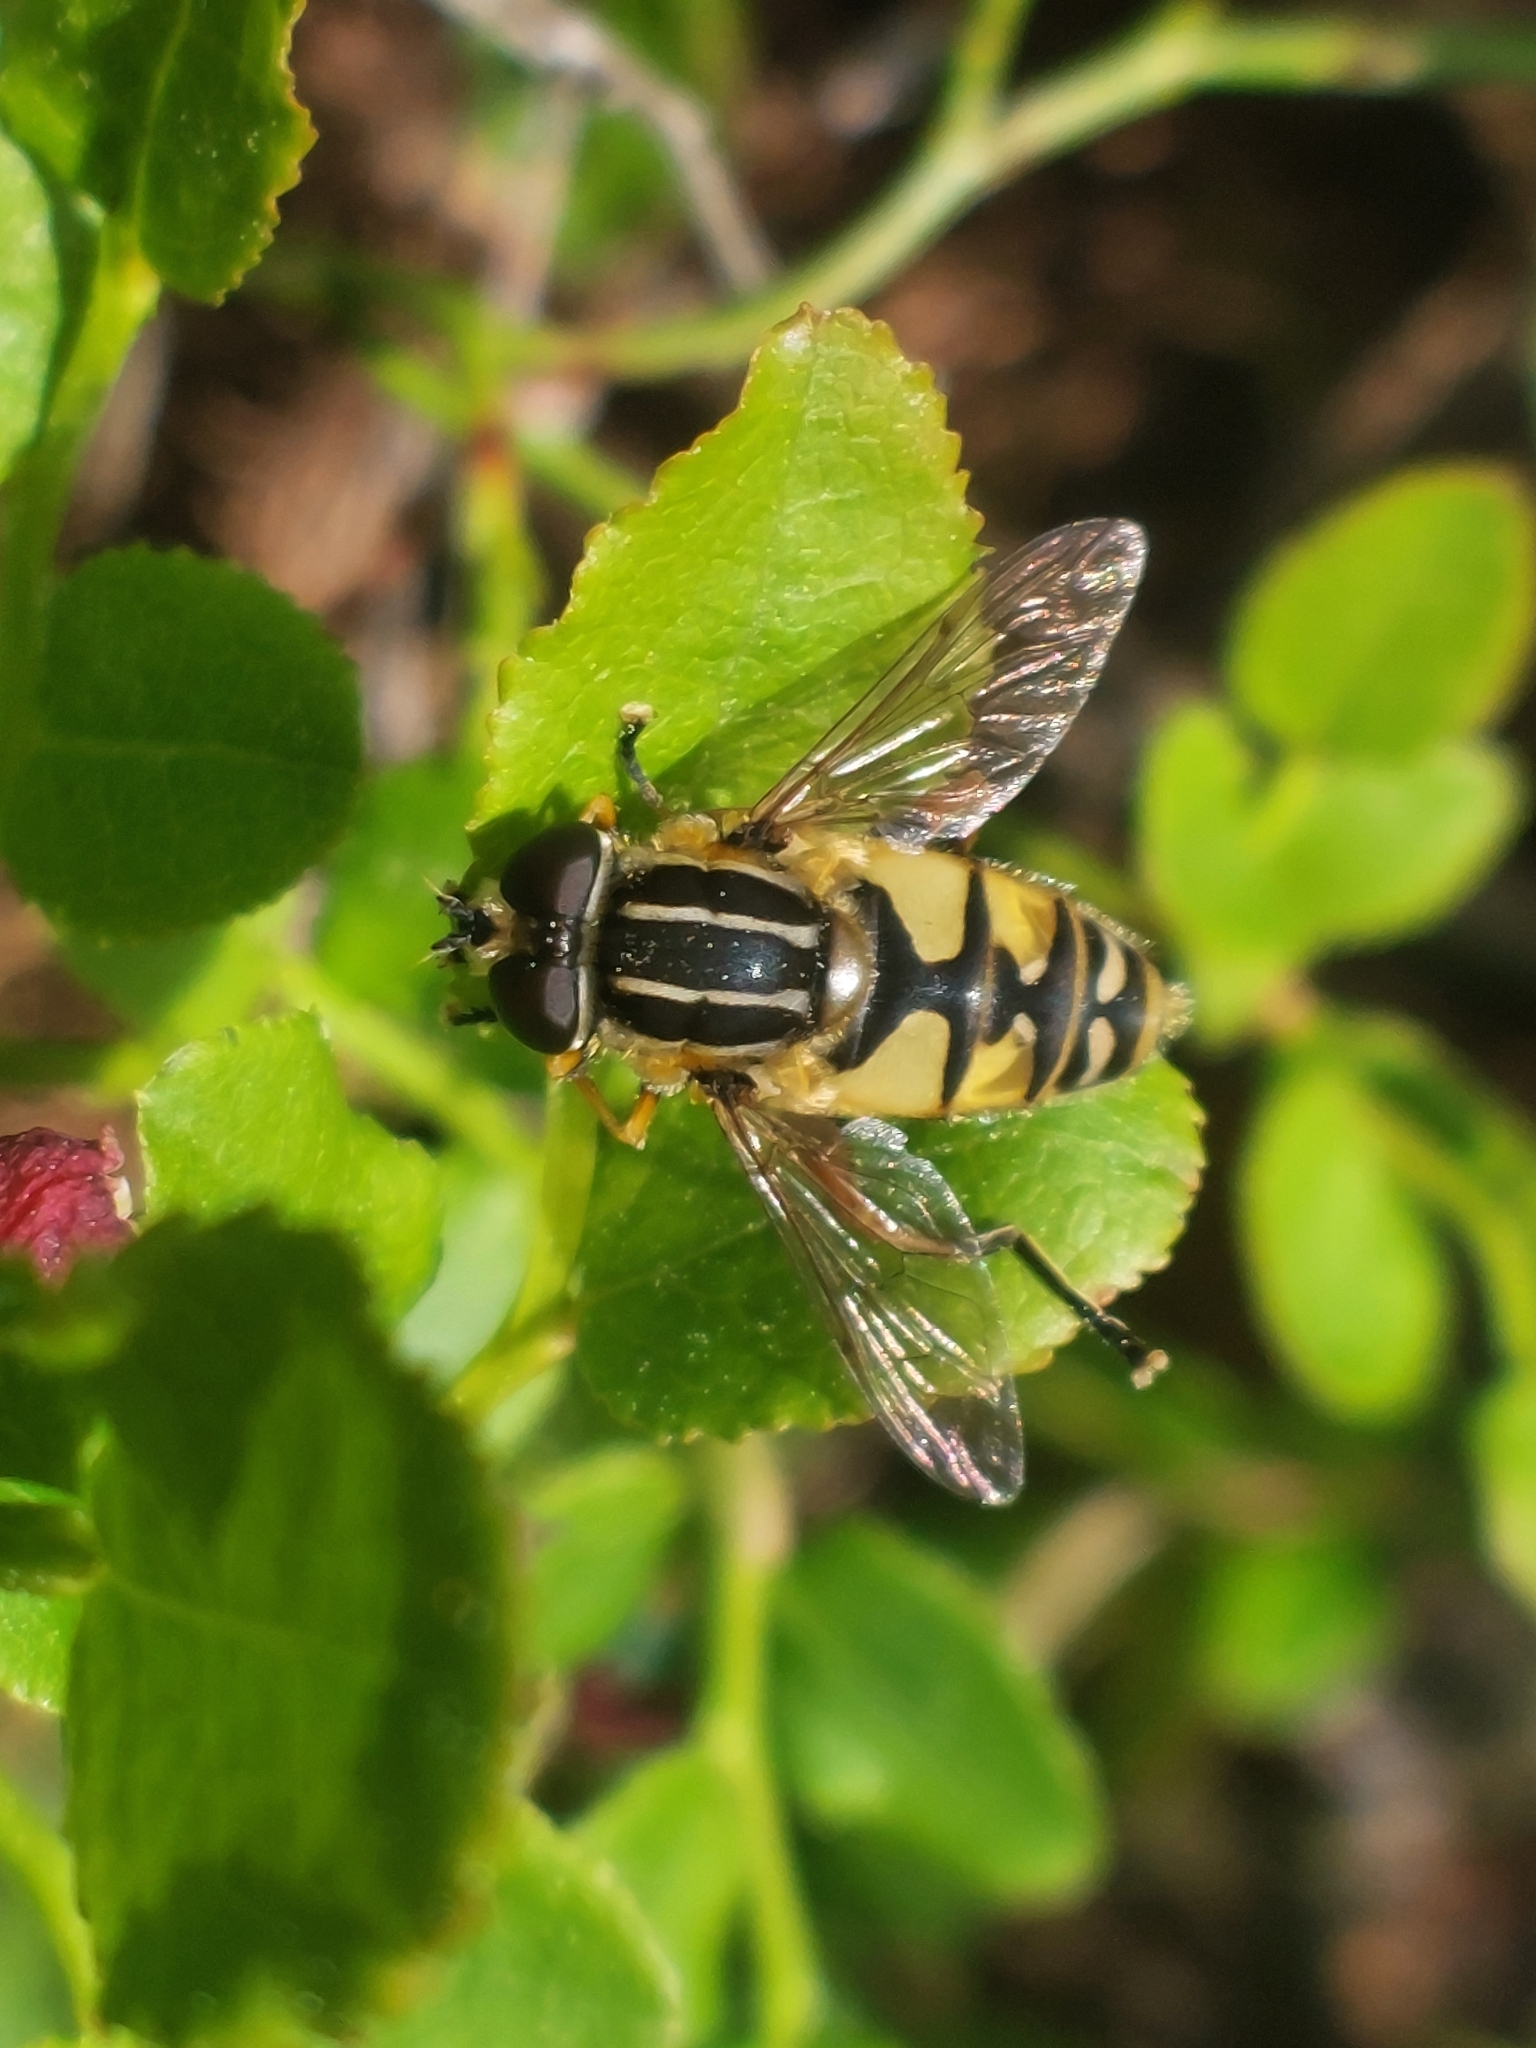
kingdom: Animalia
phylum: Arthropoda
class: Insecta
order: Diptera
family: Syrphidae
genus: Helophilus
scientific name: Helophilus pendulus
